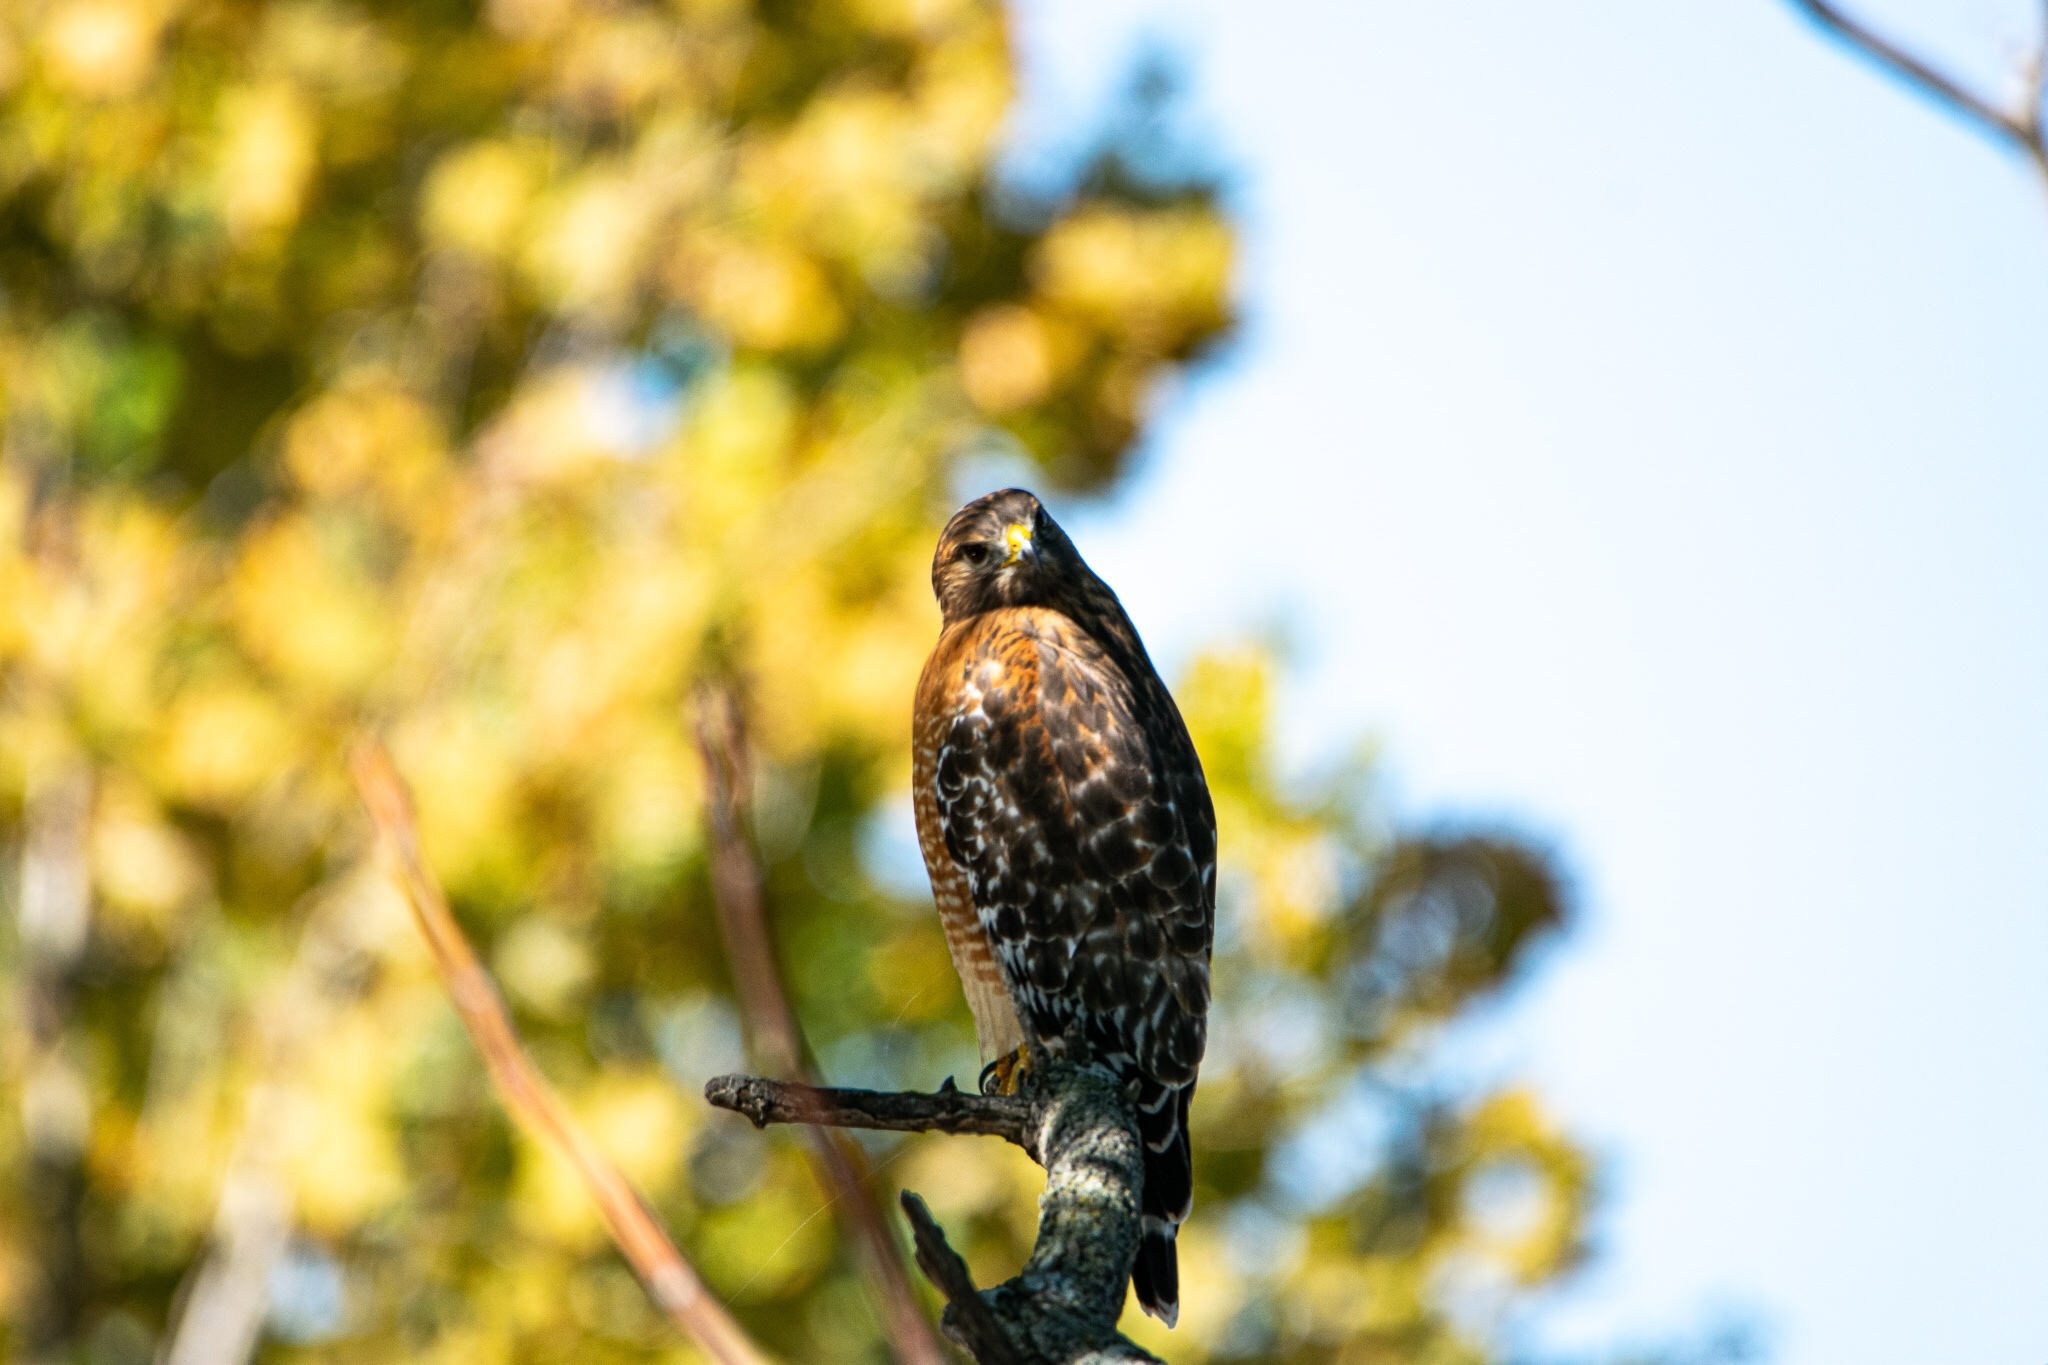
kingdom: Animalia
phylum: Chordata
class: Aves
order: Accipitriformes
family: Accipitridae
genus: Buteo
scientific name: Buteo lineatus
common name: Red-shouldered hawk
